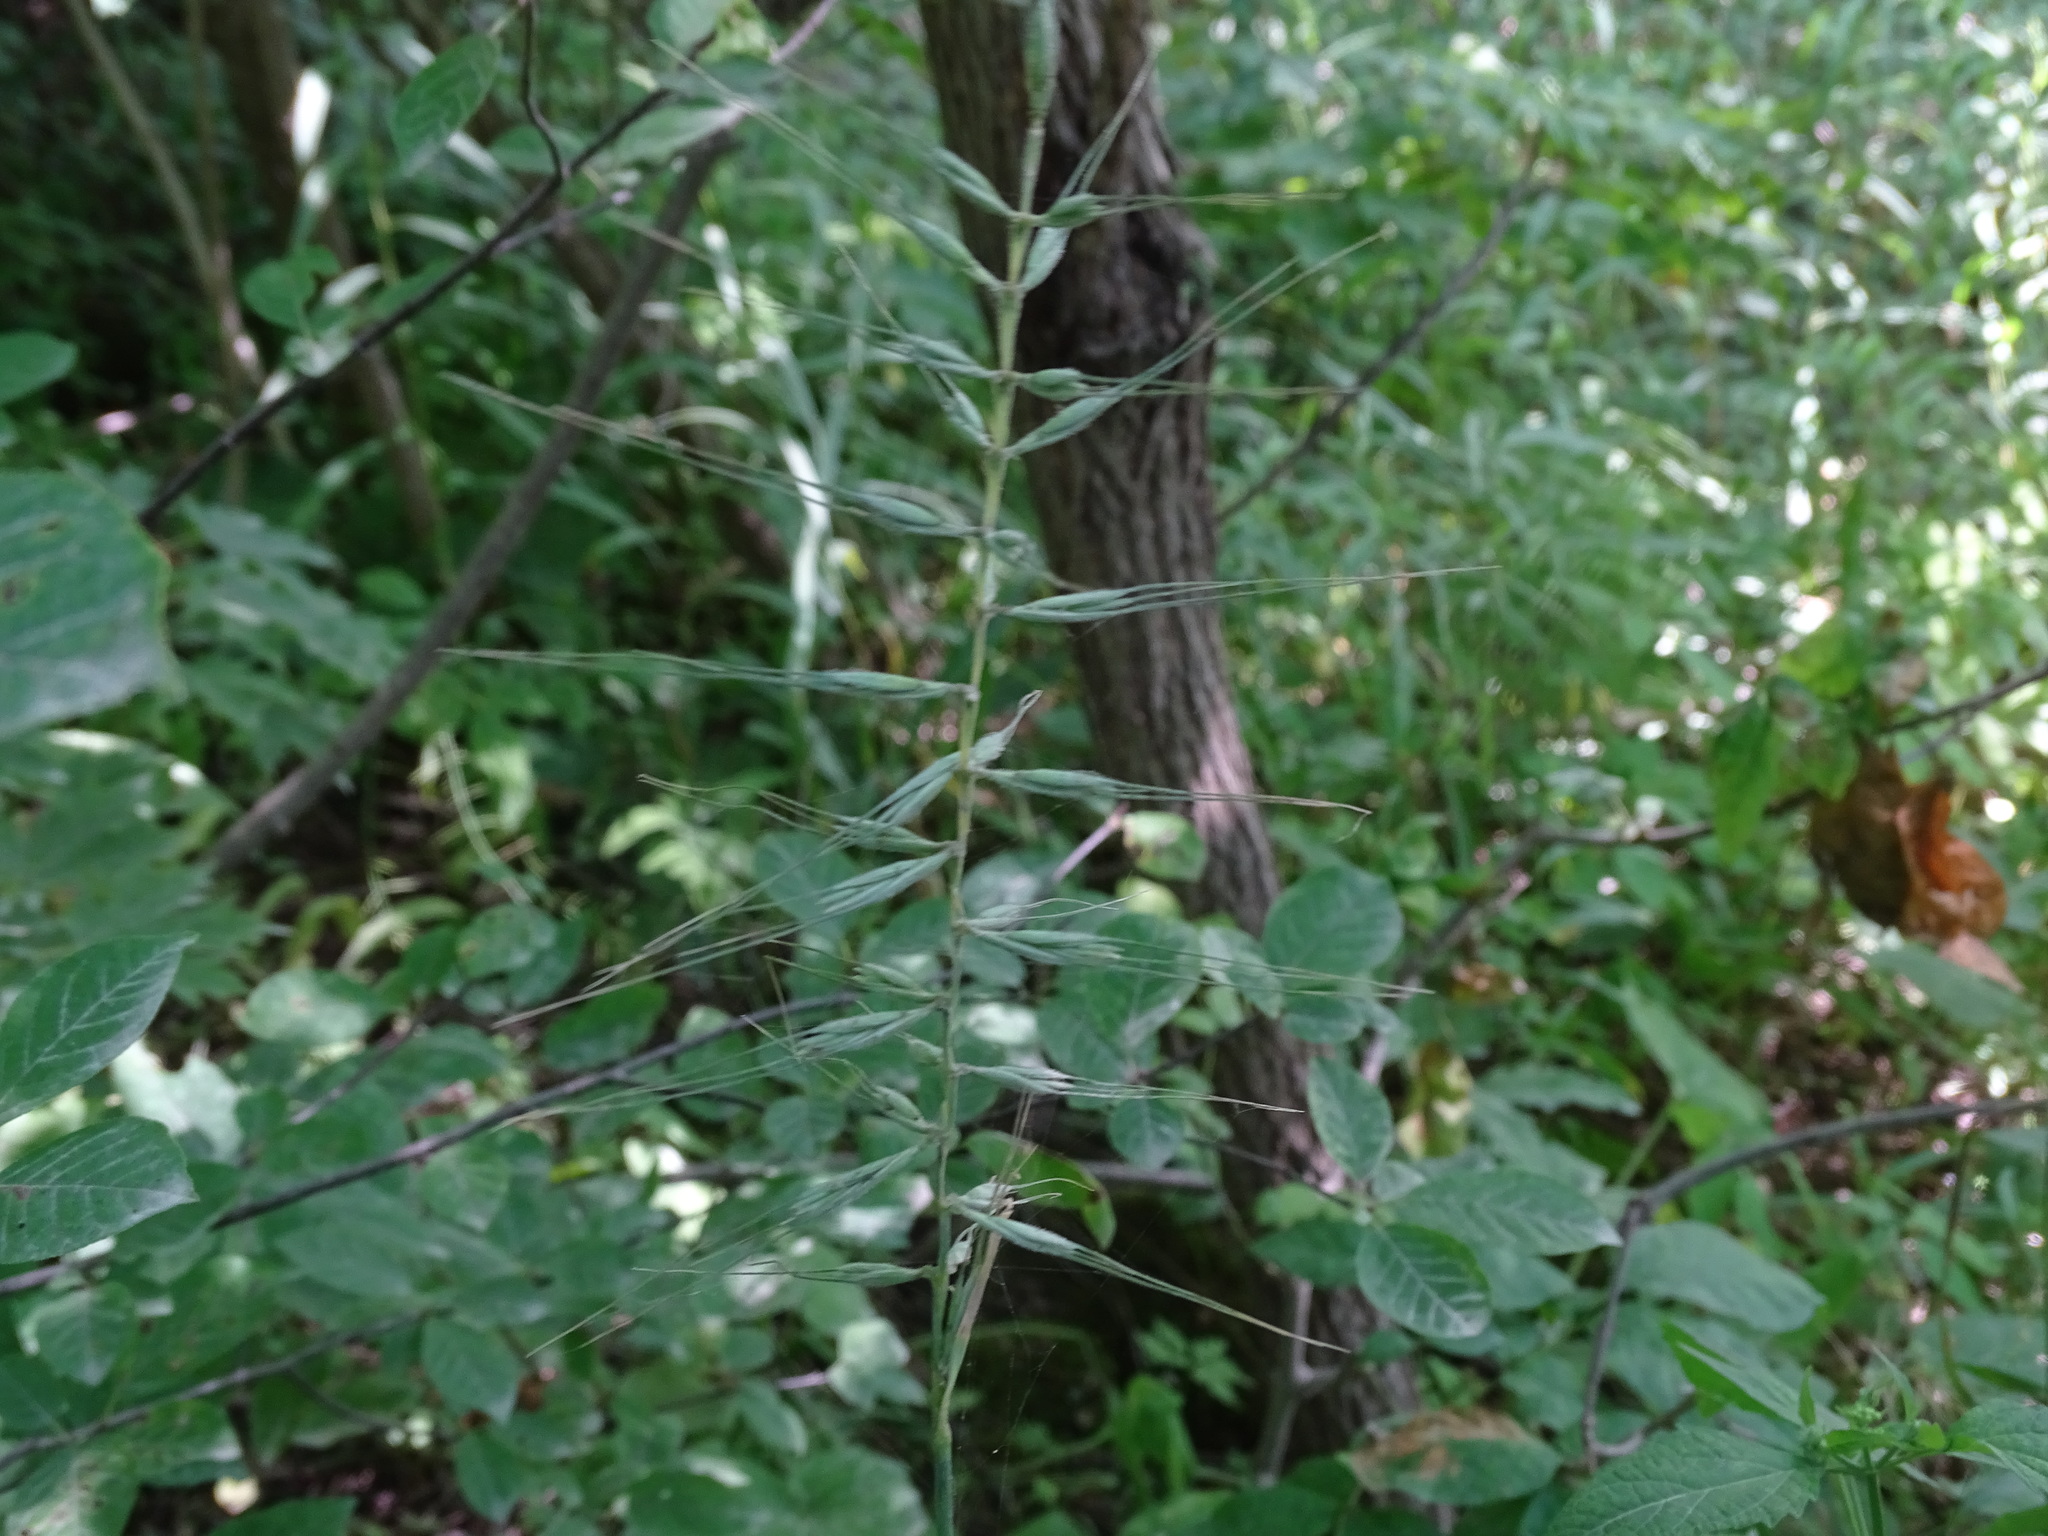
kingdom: Plantae
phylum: Tracheophyta
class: Liliopsida
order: Poales
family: Poaceae
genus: Elymus
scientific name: Elymus hystrix
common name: Bottlebrush grass
